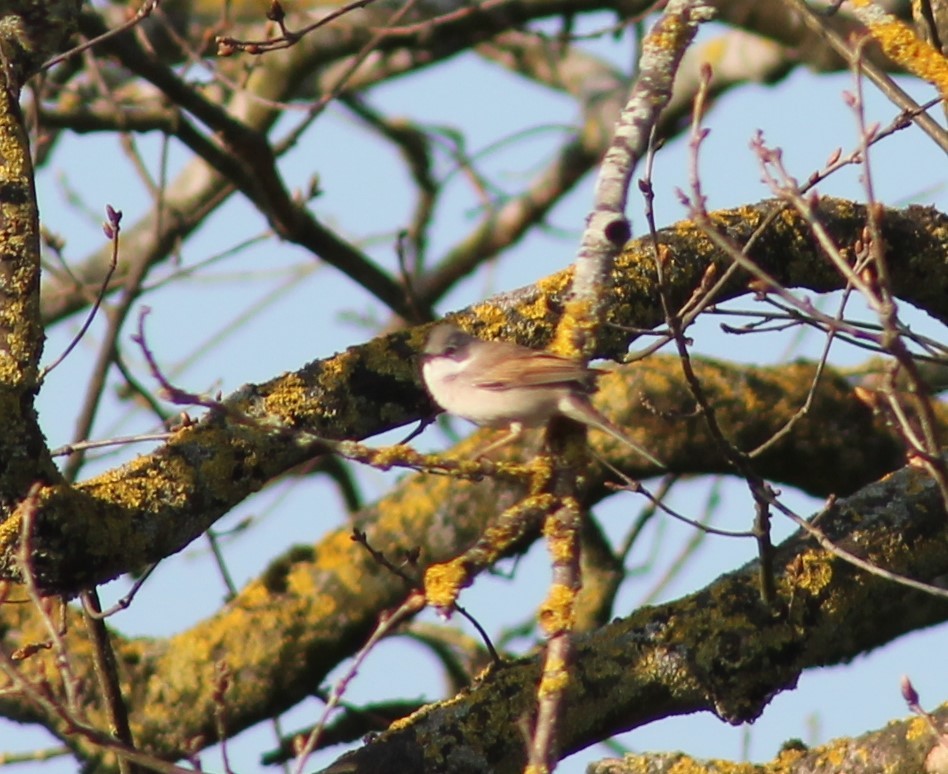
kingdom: Animalia
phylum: Chordata
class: Aves
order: Passeriformes
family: Sylviidae
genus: Sylvia
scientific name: Sylvia communis
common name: Common whitethroat
